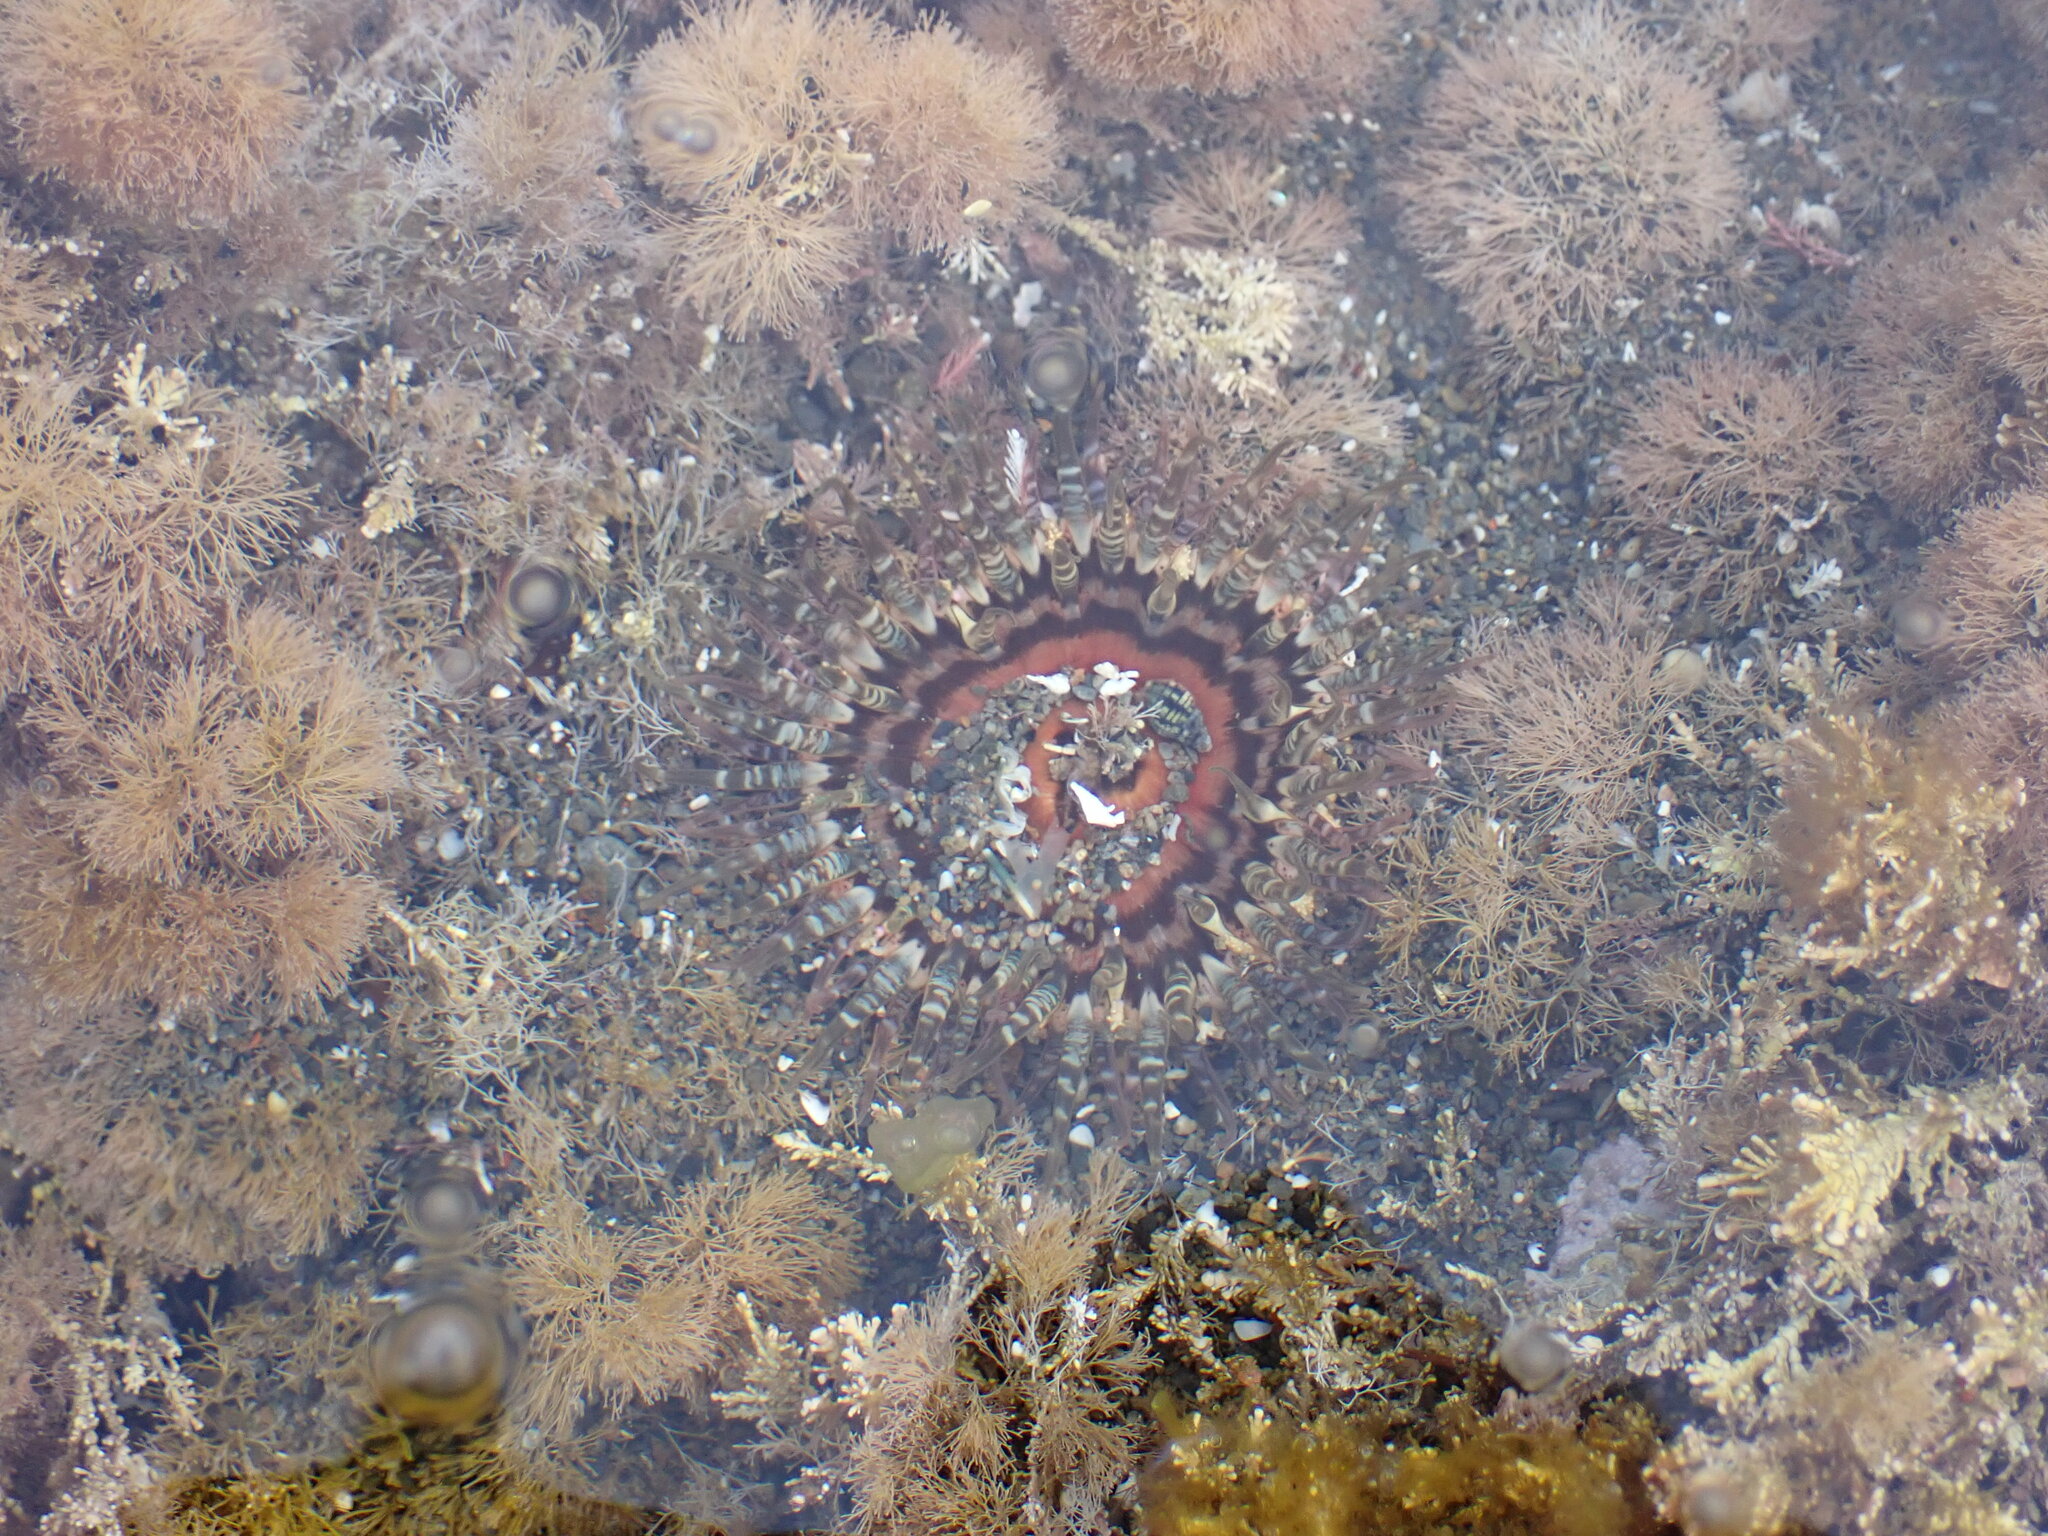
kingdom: Animalia
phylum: Cnidaria
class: Anthozoa
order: Actiniaria
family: Actiniidae
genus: Oulactis
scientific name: Oulactis muscosa
